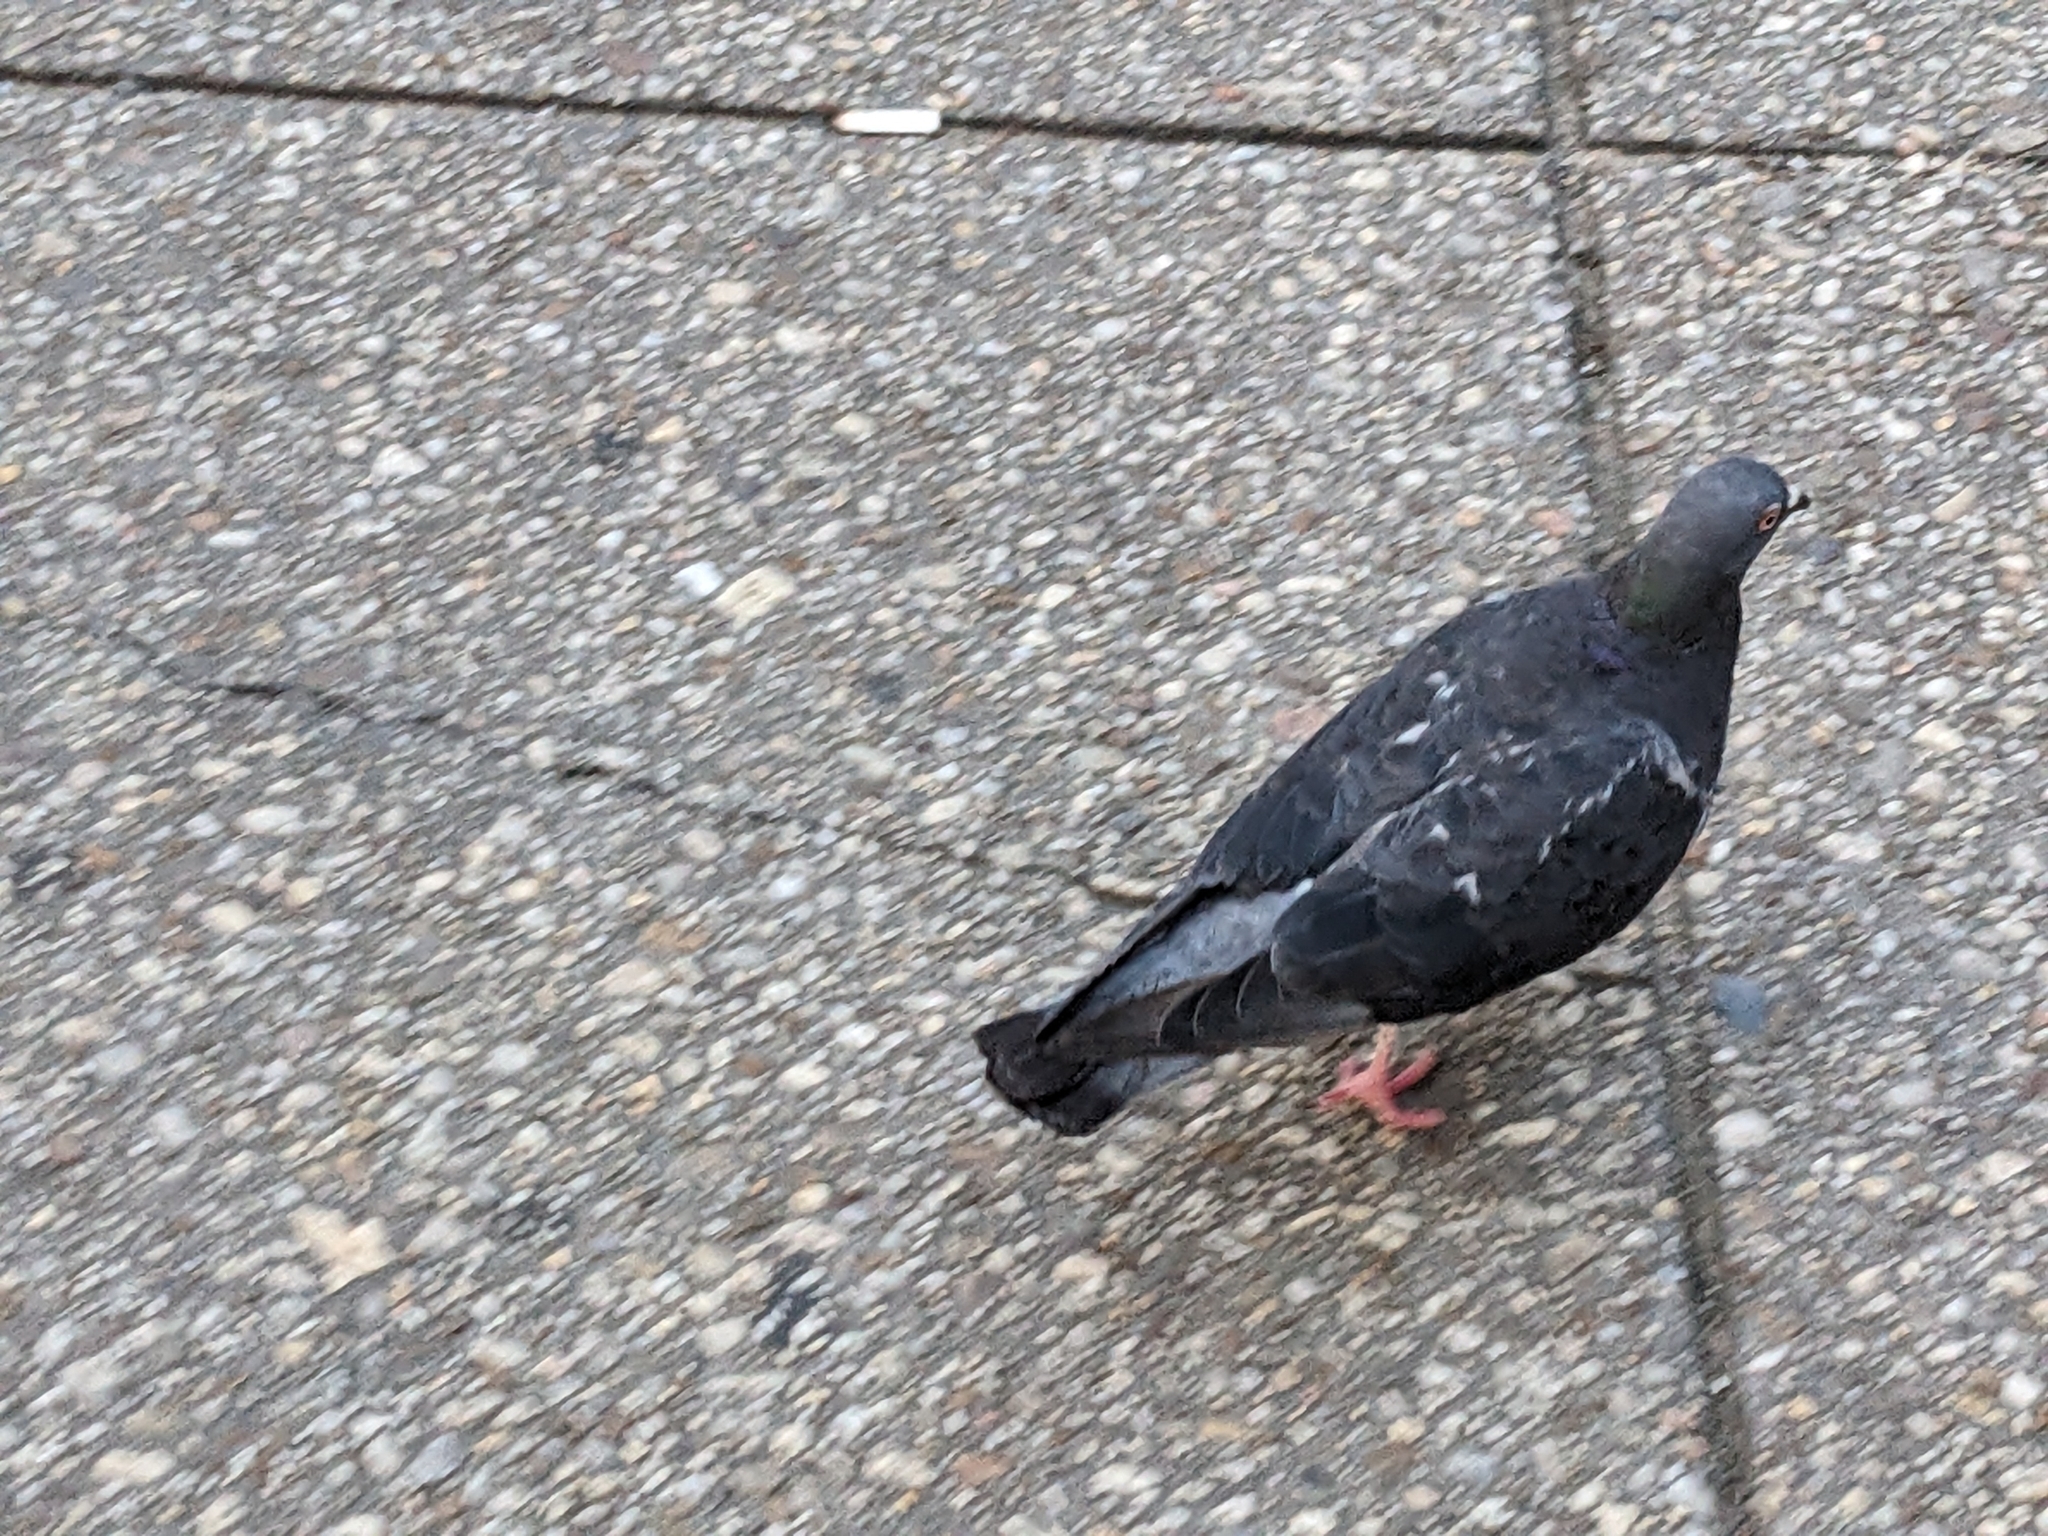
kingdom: Animalia
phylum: Chordata
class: Aves
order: Columbiformes
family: Columbidae
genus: Columba
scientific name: Columba livia
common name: Rock pigeon
